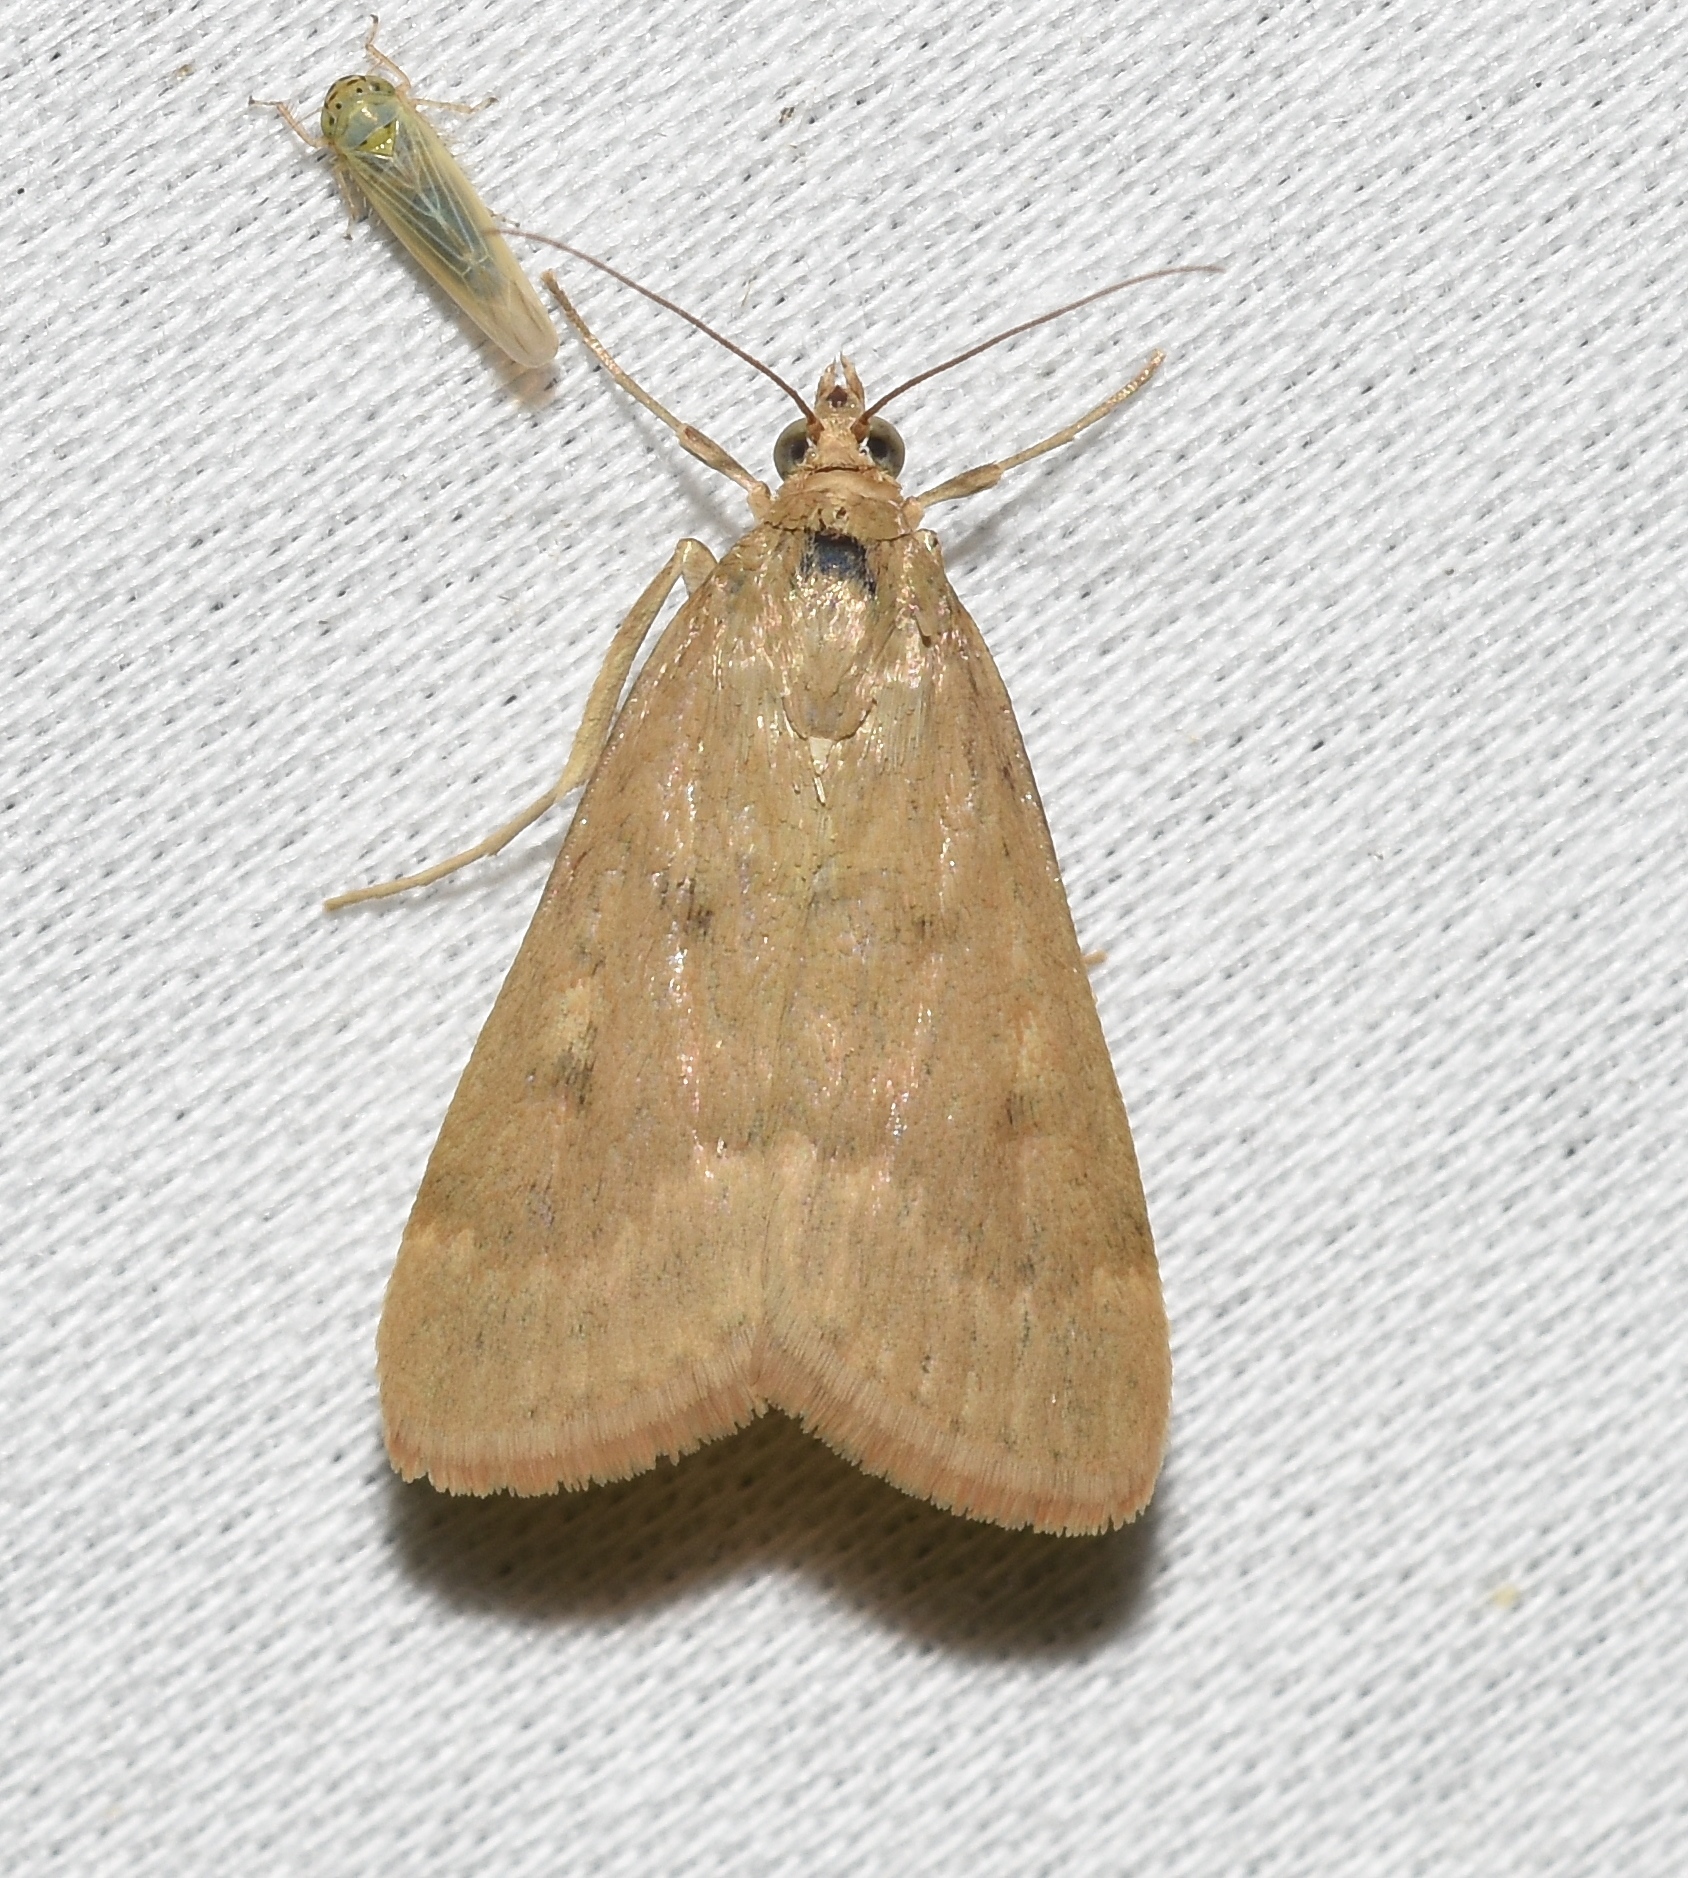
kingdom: Animalia
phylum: Arthropoda
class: Insecta
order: Lepidoptera
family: Crambidae
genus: Achyra
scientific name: Achyra rantalis
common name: Garden webworm
